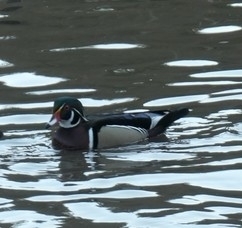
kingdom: Animalia
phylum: Chordata
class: Aves
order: Anseriformes
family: Anatidae
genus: Aix
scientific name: Aix sponsa
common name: Wood duck
